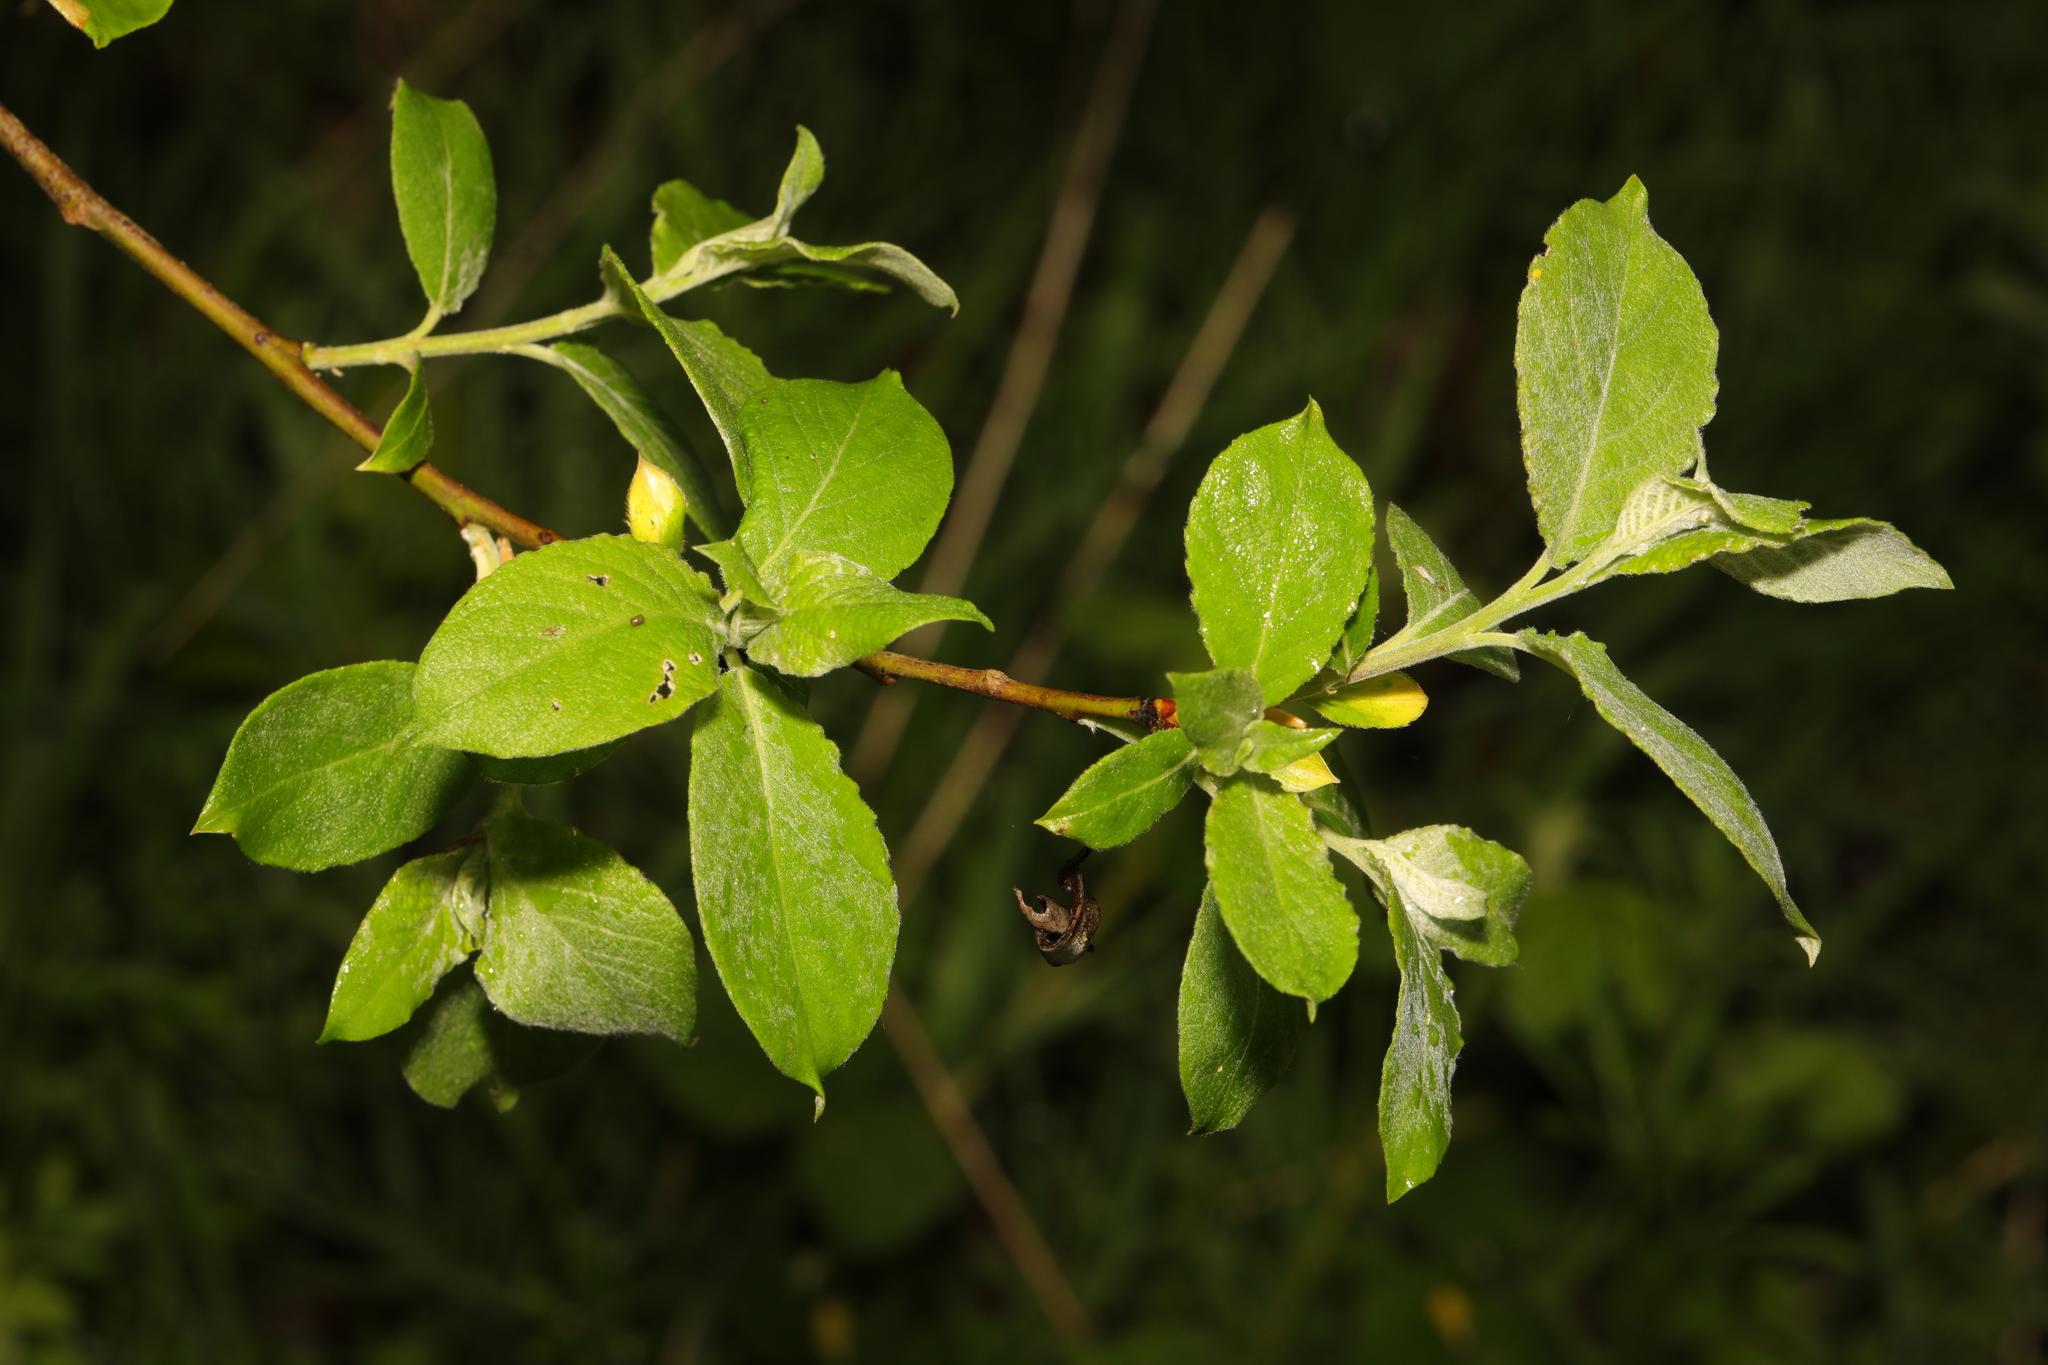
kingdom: Plantae
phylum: Tracheophyta
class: Magnoliopsida
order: Malpighiales
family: Salicaceae
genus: Salix
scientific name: Salix caprea
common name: Goat willow
